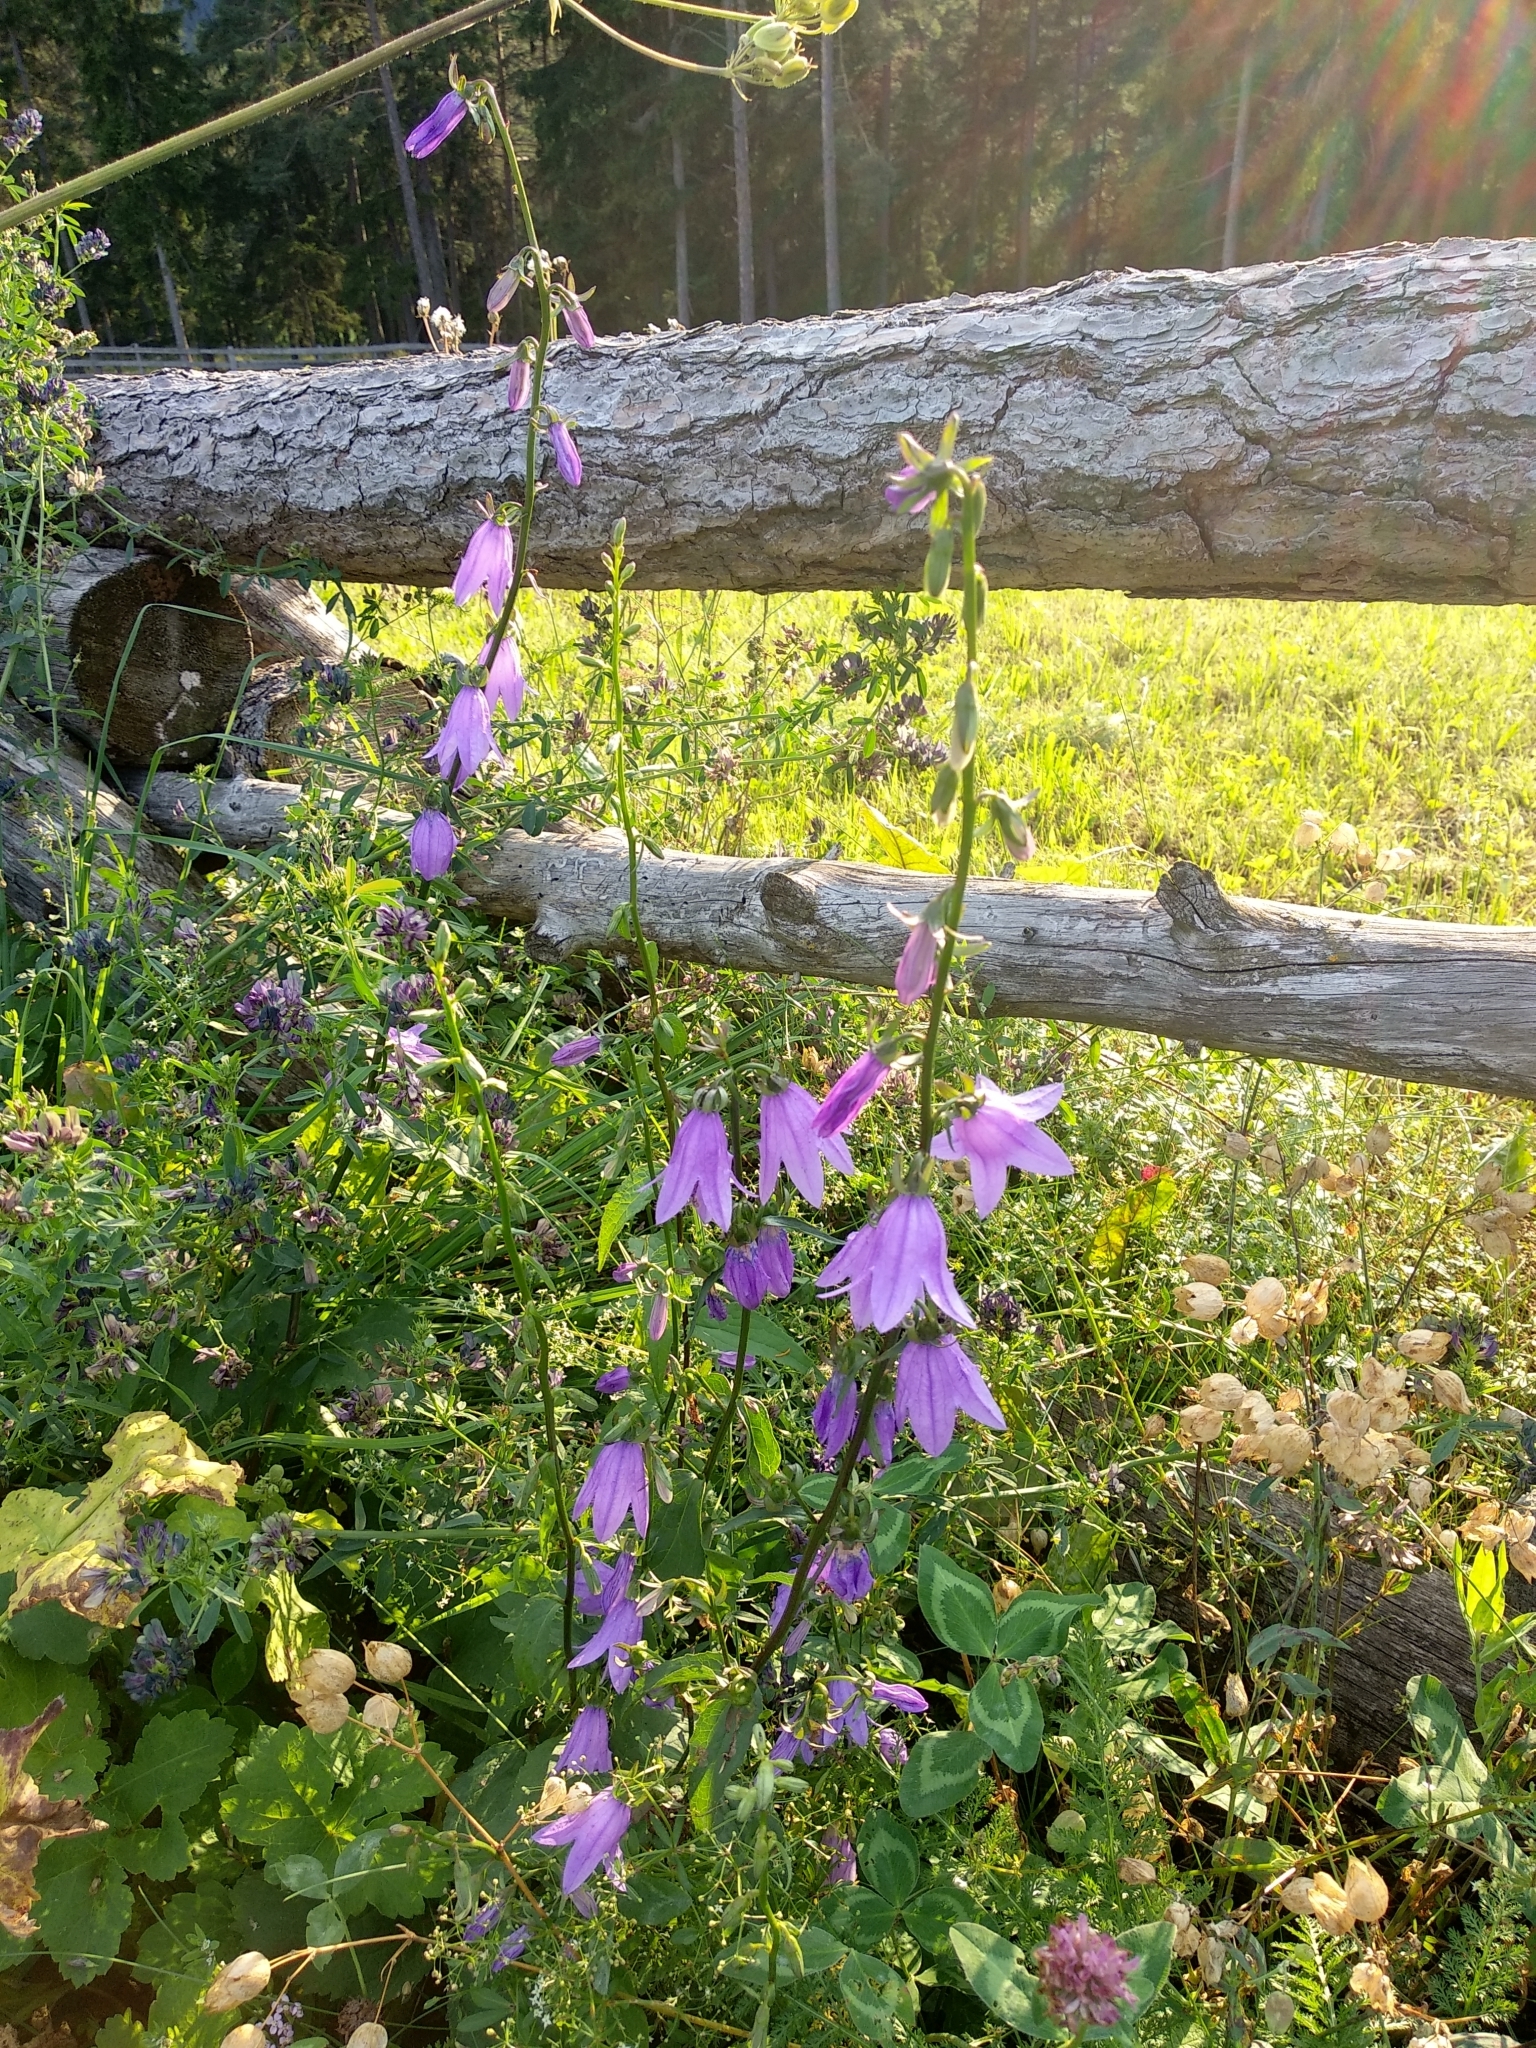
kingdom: Plantae
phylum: Tracheophyta
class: Magnoliopsida
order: Asterales
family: Campanulaceae
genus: Campanula
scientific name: Campanula rapunculoides
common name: Creeping bellflower
